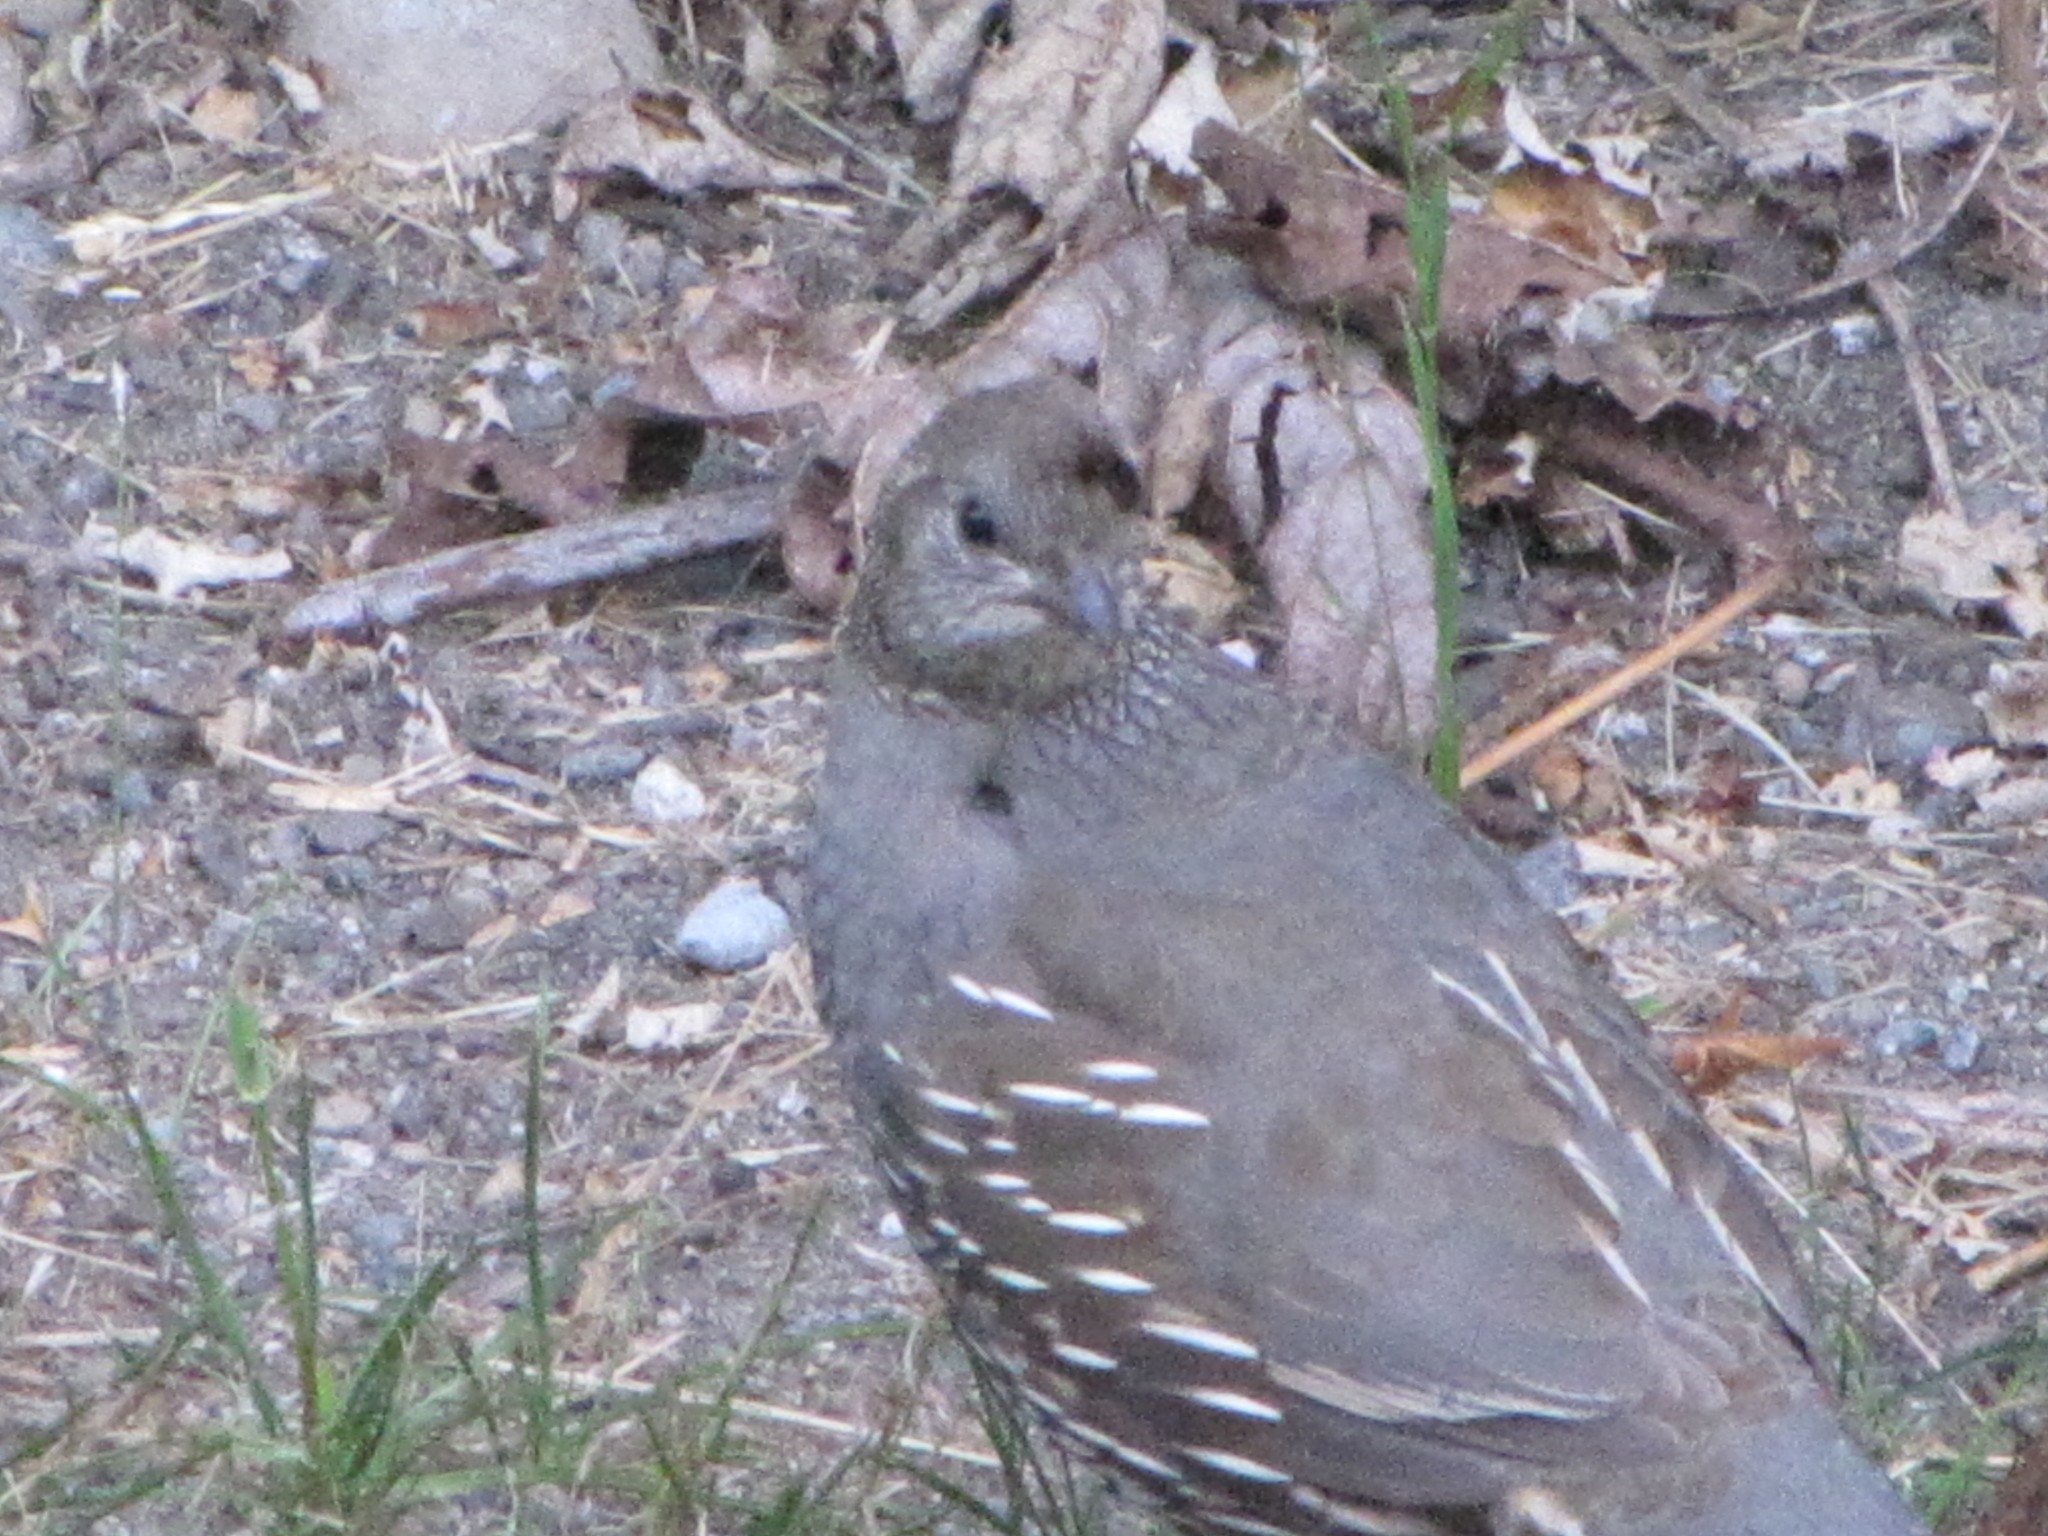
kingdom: Animalia
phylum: Chordata
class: Aves
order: Galliformes
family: Odontophoridae
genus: Callipepla
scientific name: Callipepla californica
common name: California quail
